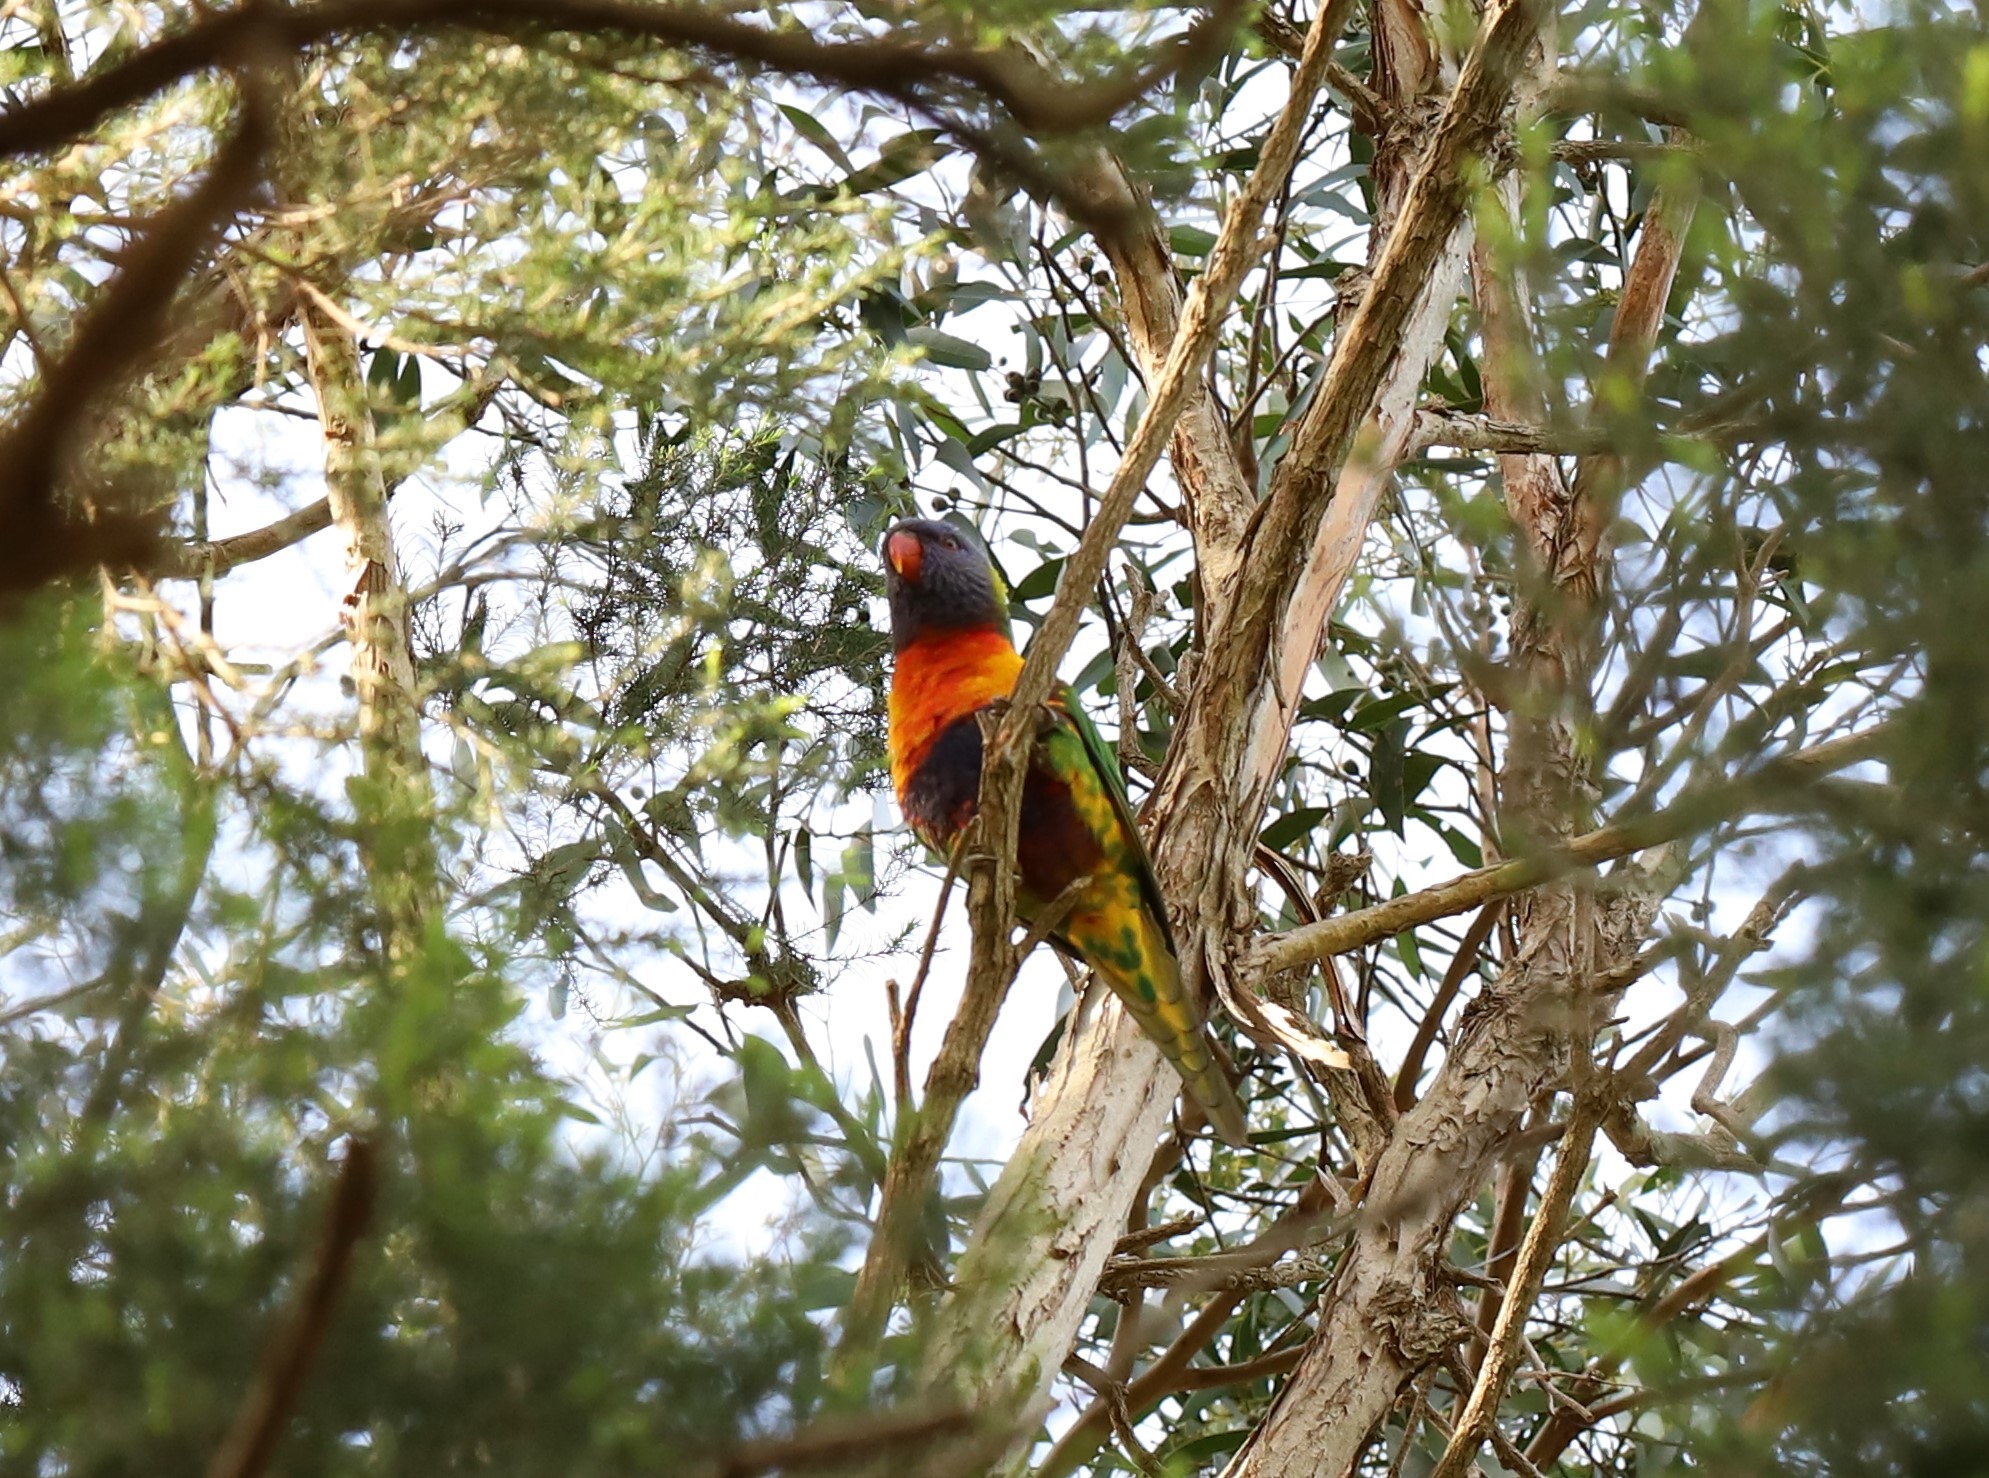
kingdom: Animalia
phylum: Chordata
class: Aves
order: Psittaciformes
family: Psittacidae
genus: Trichoglossus
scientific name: Trichoglossus haematodus
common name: Coconut lorikeet
